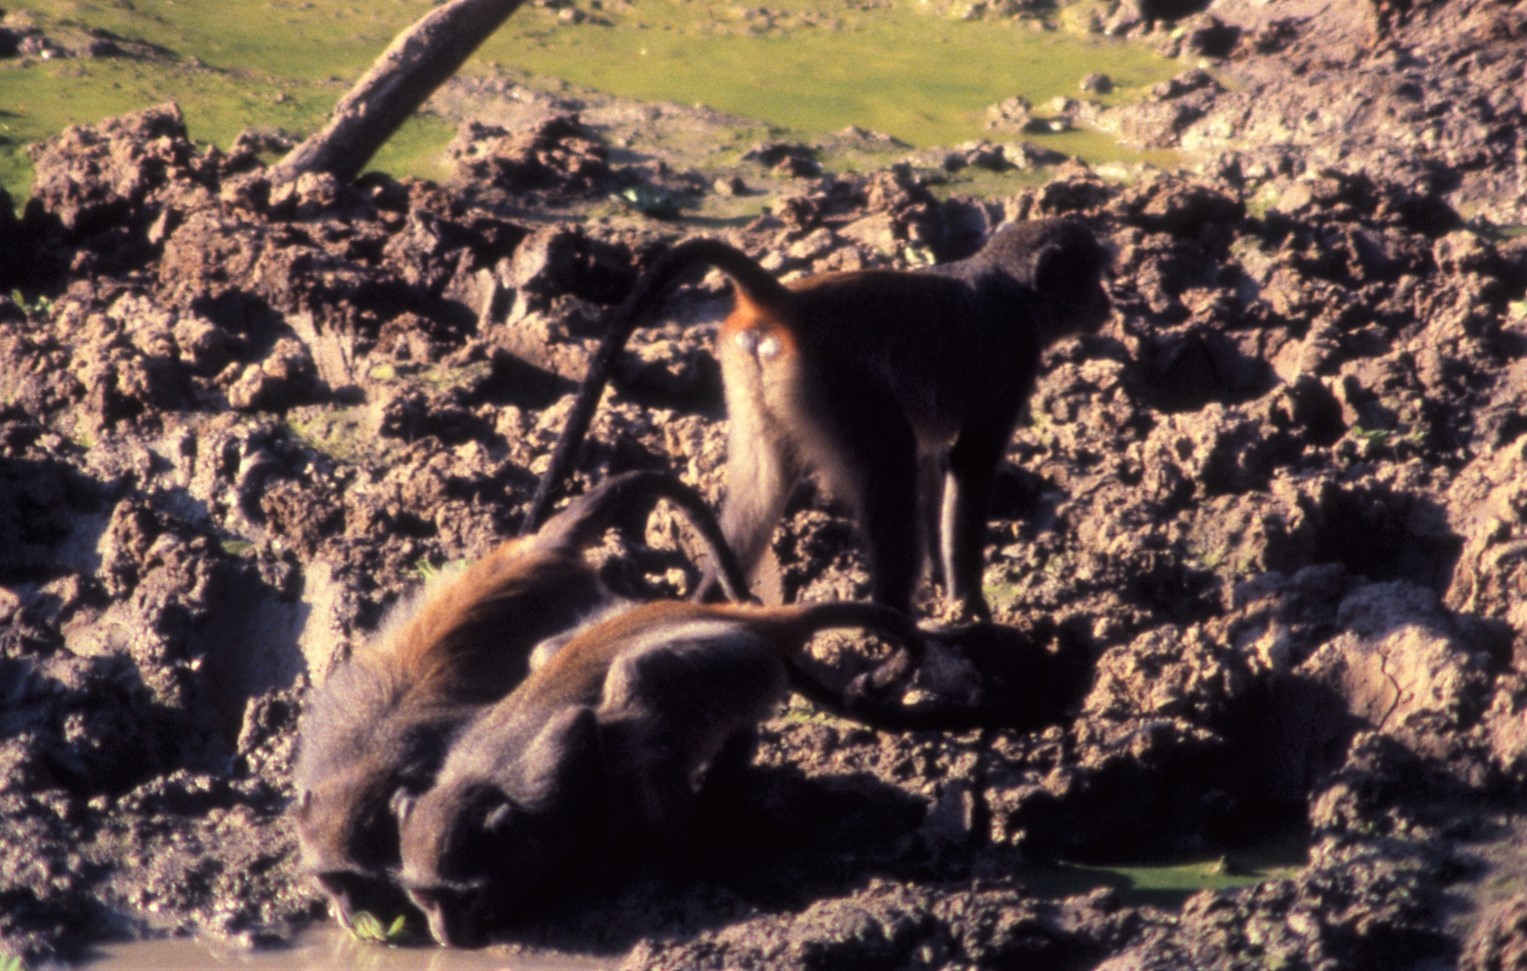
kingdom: Animalia
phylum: Chordata
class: Mammalia
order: Primates
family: Cercopithecidae
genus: Cercopithecus
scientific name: Cercopithecus mitis
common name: Blue monkey
